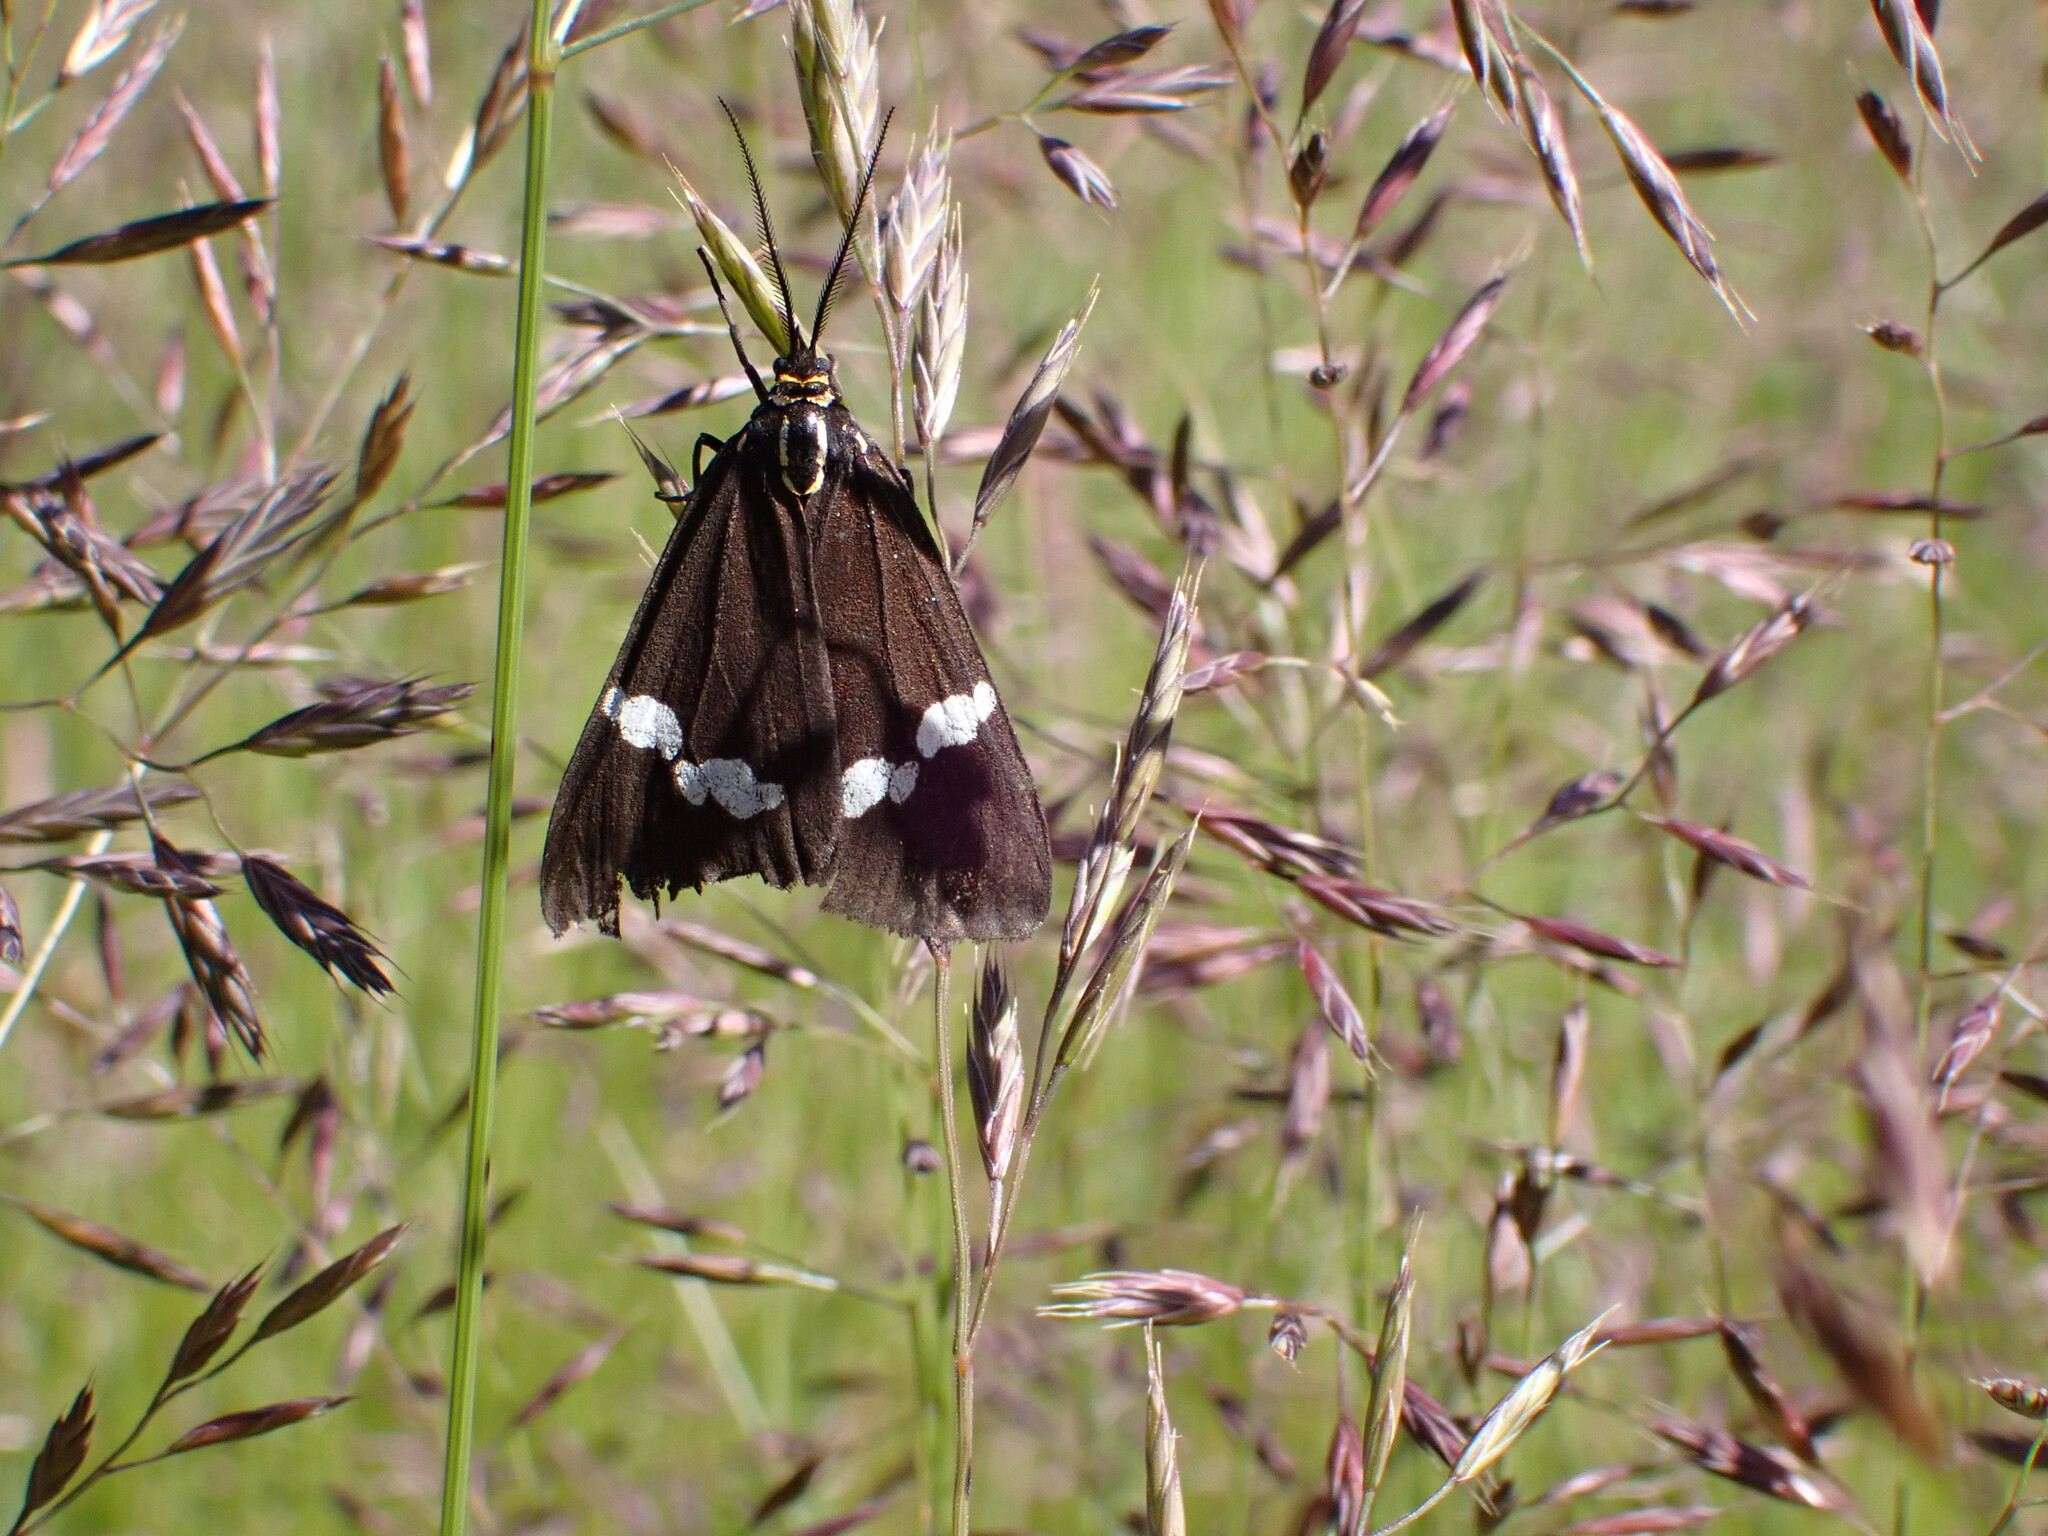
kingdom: Animalia
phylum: Arthropoda
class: Insecta
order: Lepidoptera
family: Erebidae
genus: Nyctemera
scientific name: Nyctemera annulatum
